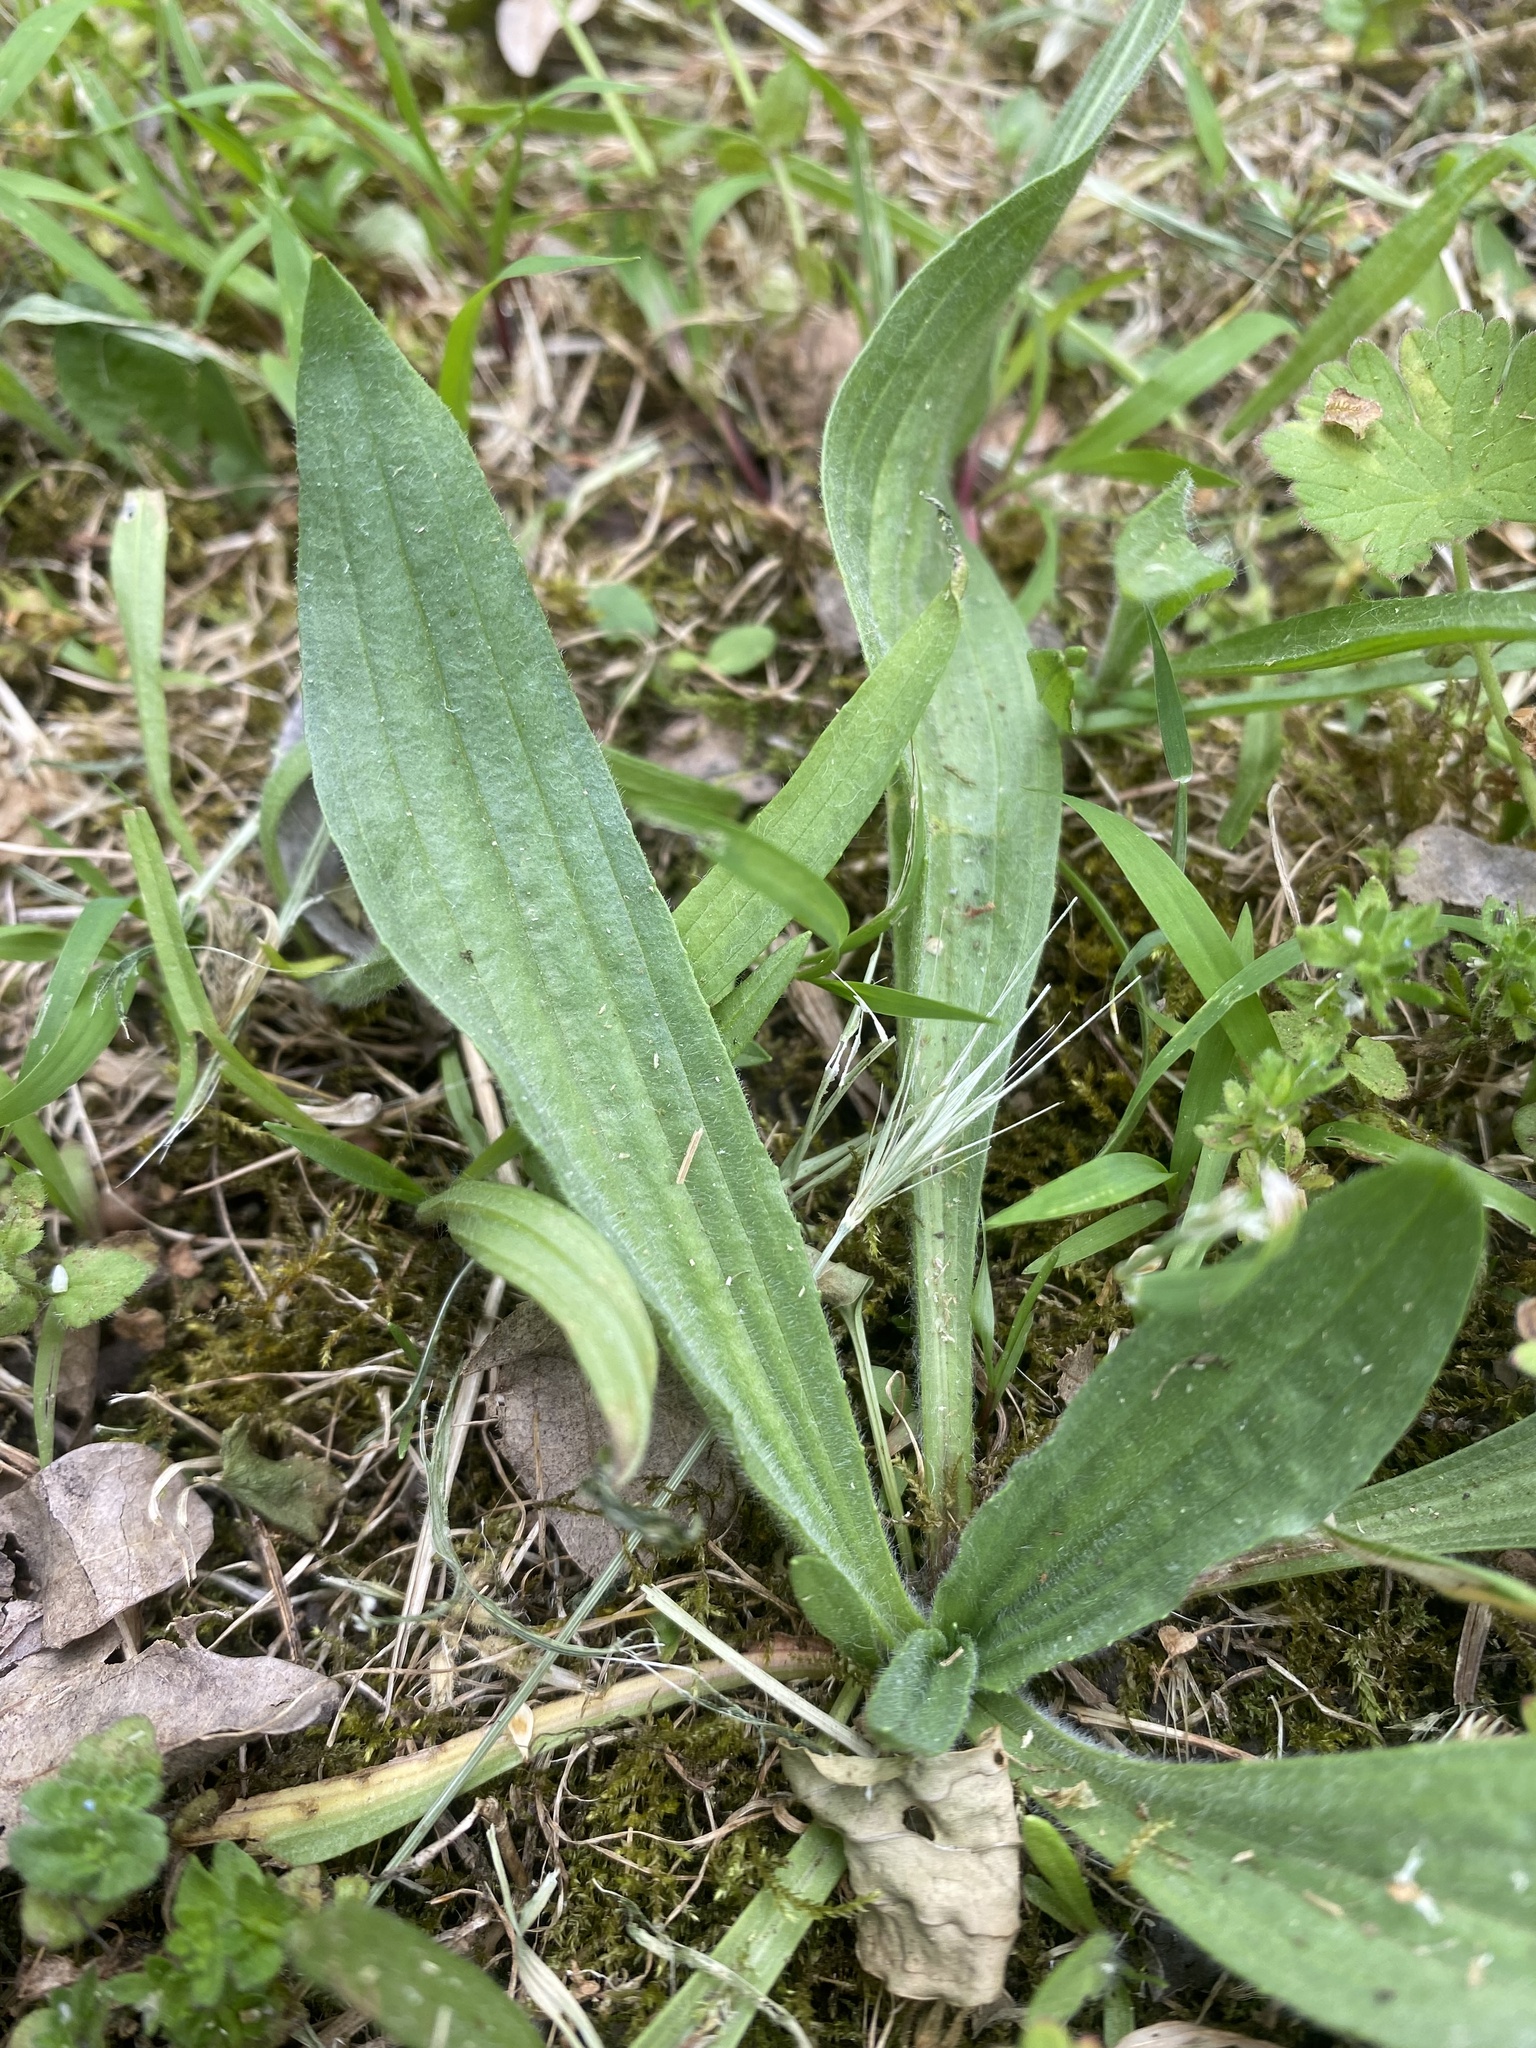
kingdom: Plantae
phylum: Tracheophyta
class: Magnoliopsida
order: Lamiales
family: Plantaginaceae
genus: Plantago
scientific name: Plantago lanceolata
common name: Ribwort plantain
